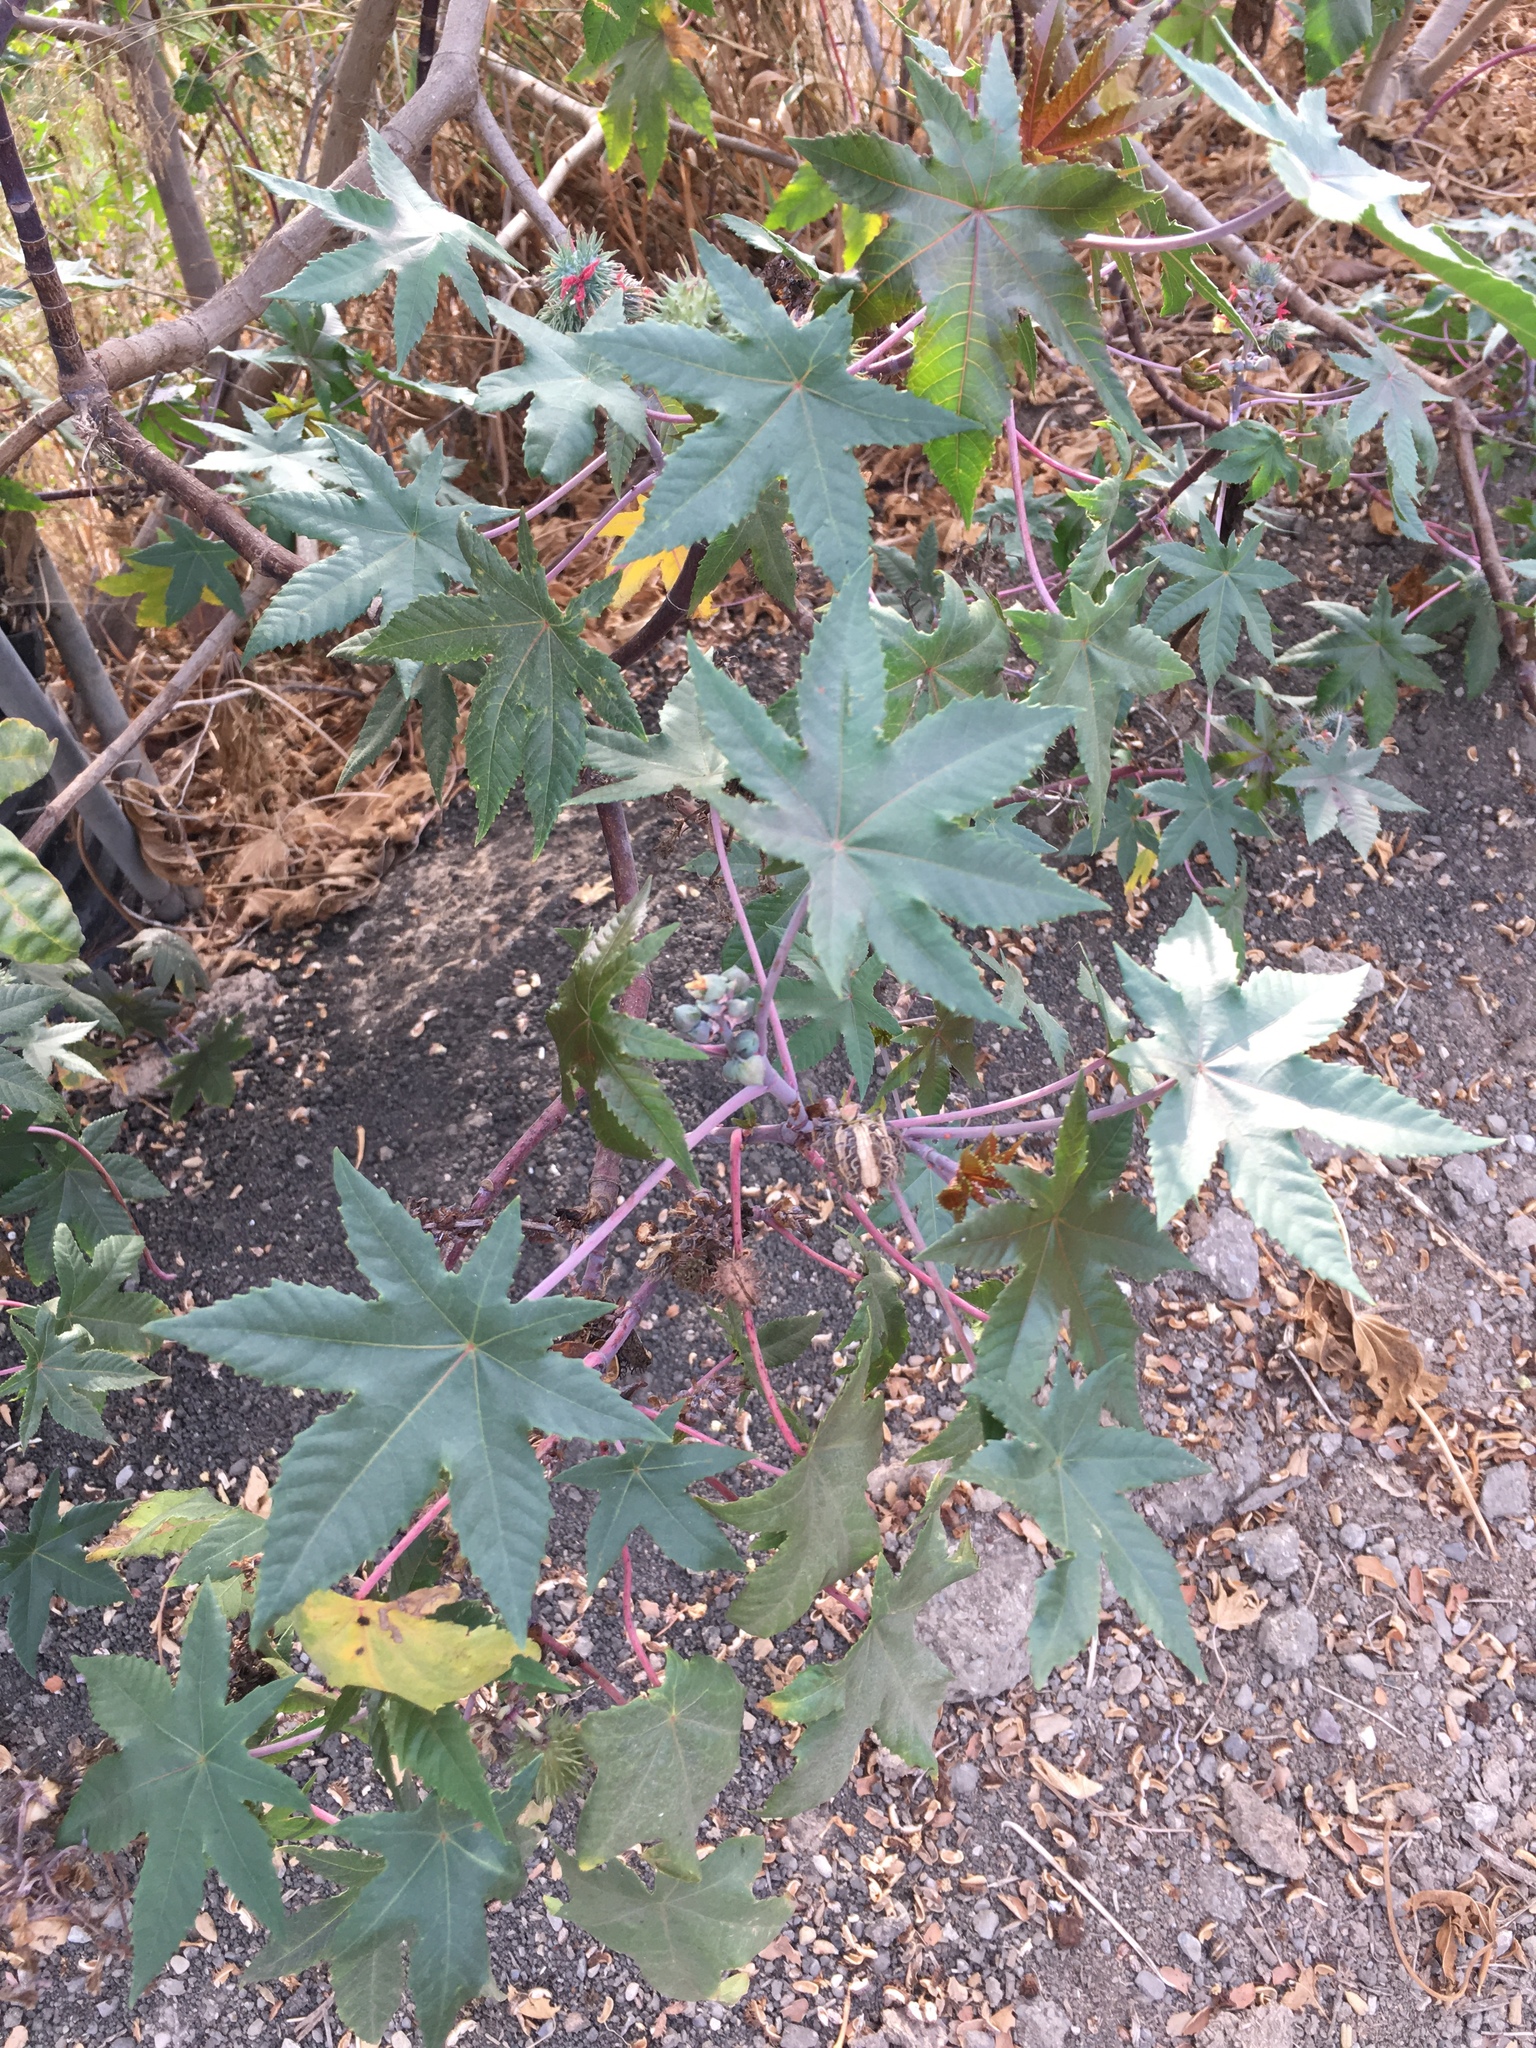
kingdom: Plantae
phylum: Tracheophyta
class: Magnoliopsida
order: Malpighiales
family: Euphorbiaceae
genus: Ricinus
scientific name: Ricinus communis
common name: Castor-oil-plant
